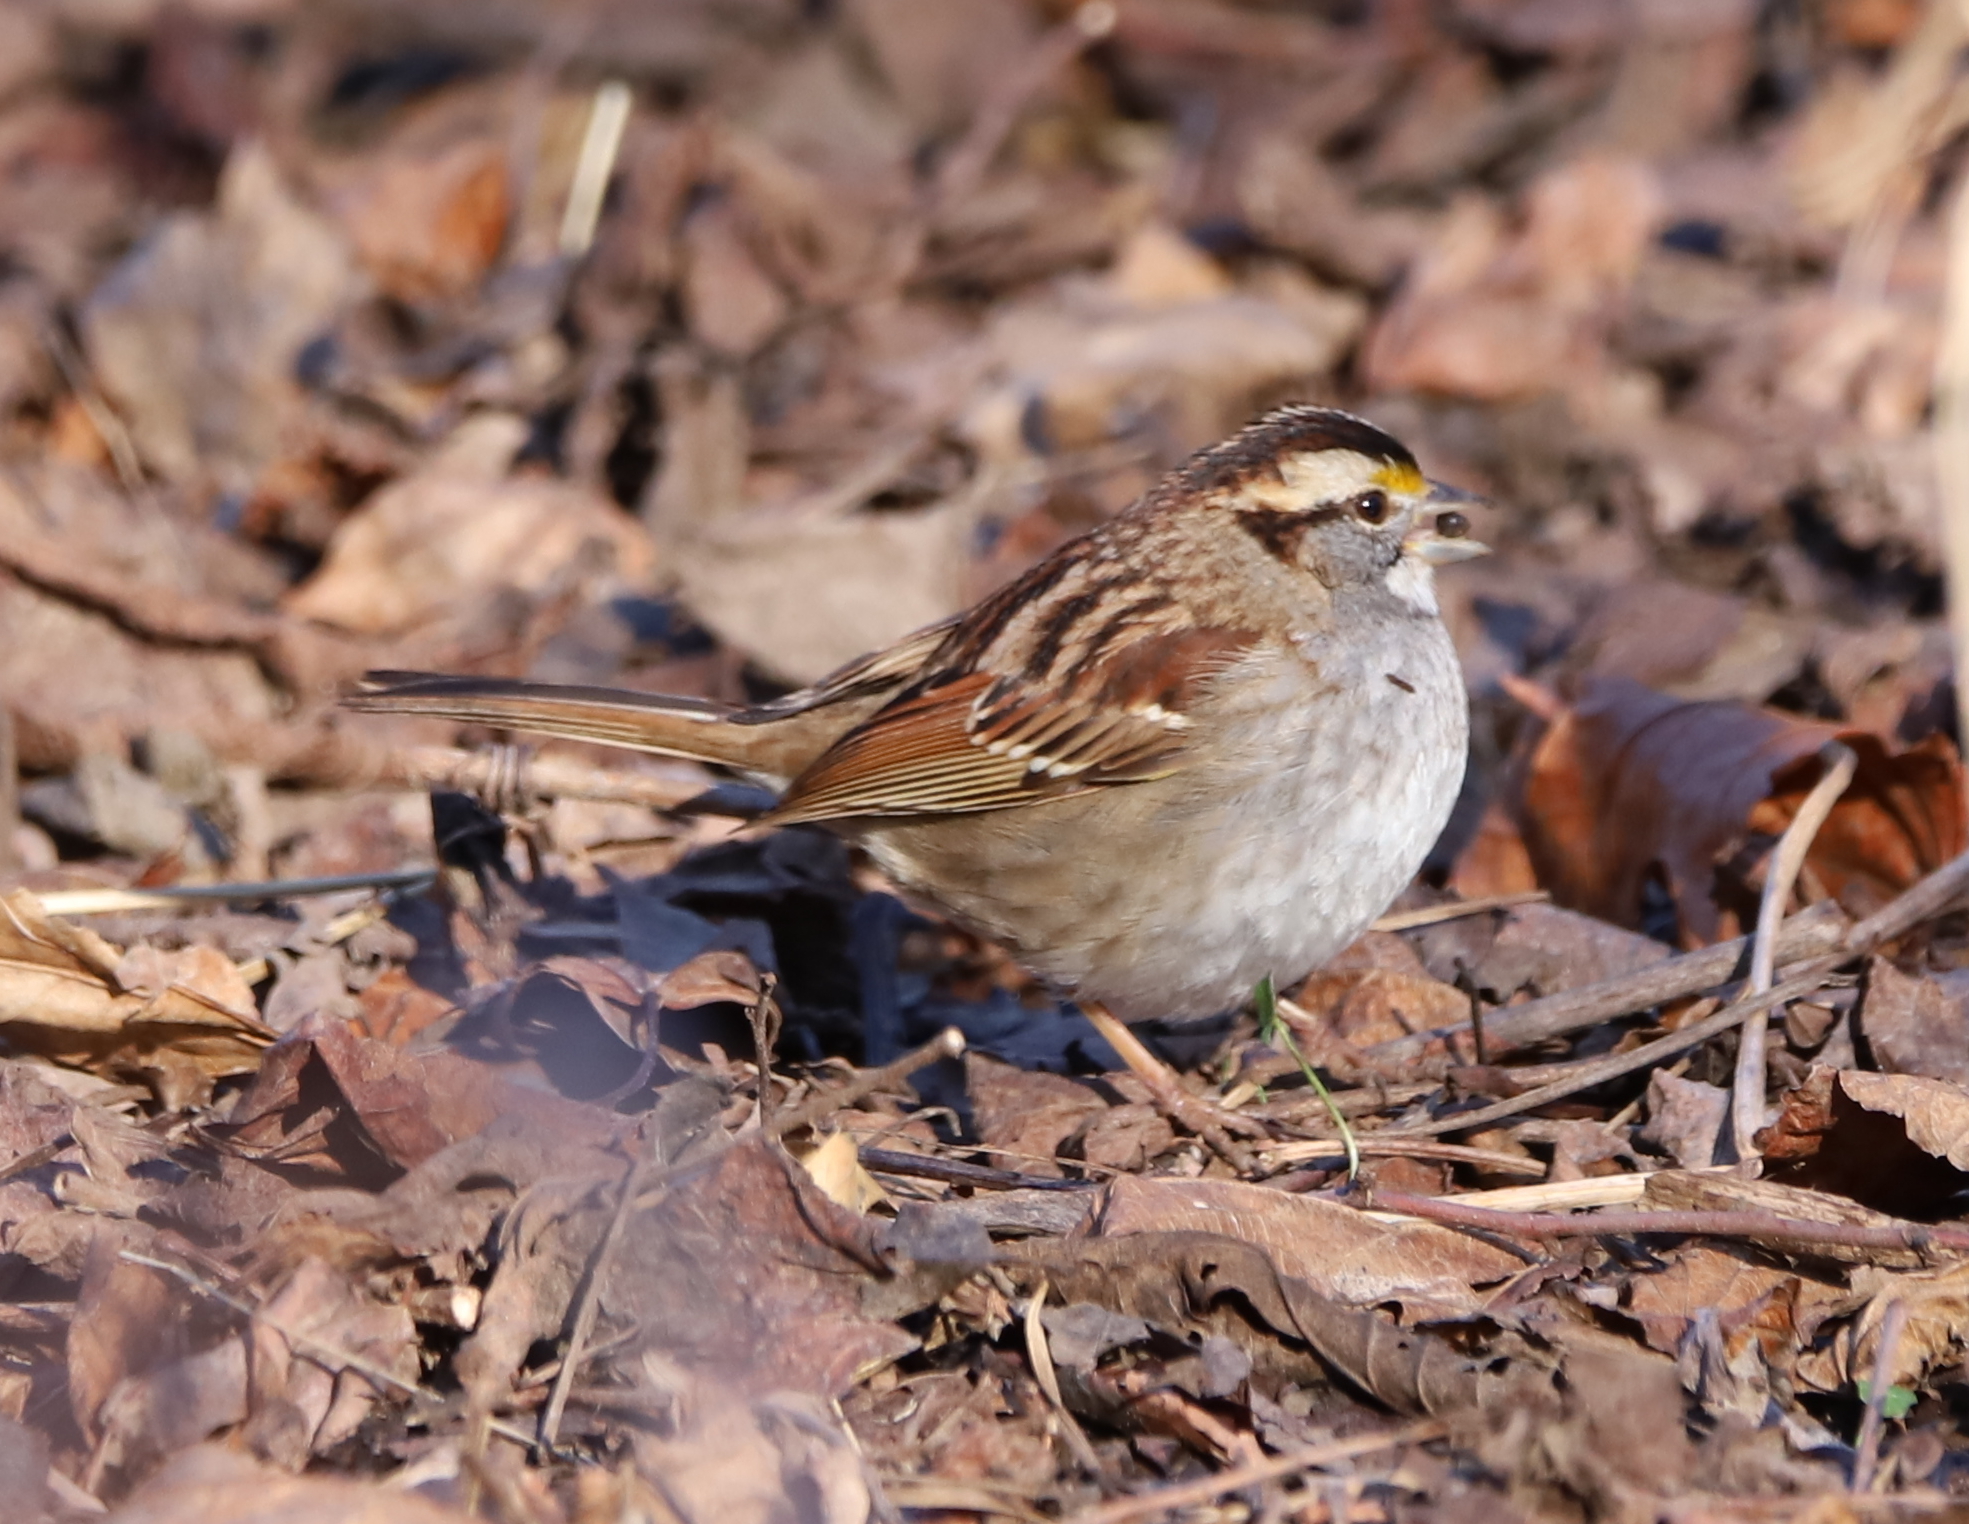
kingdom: Animalia
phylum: Chordata
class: Aves
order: Passeriformes
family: Passerellidae
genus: Zonotrichia
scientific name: Zonotrichia albicollis
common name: White-throated sparrow
